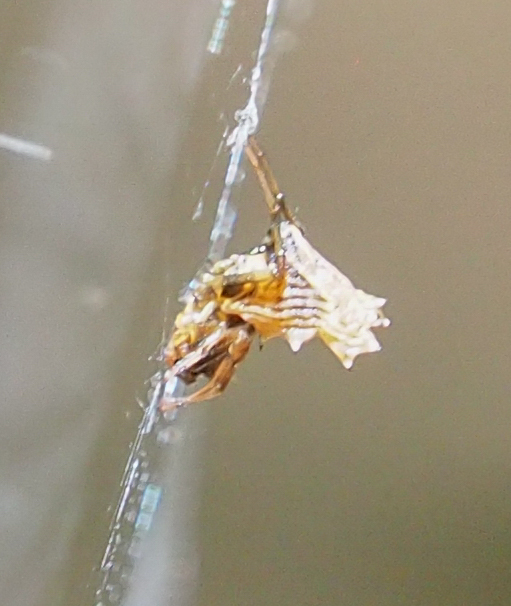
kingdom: Animalia
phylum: Arthropoda
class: Arachnida
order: Araneae
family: Araneidae
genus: Micrathena
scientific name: Micrathena gracilis
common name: Orb weavers
